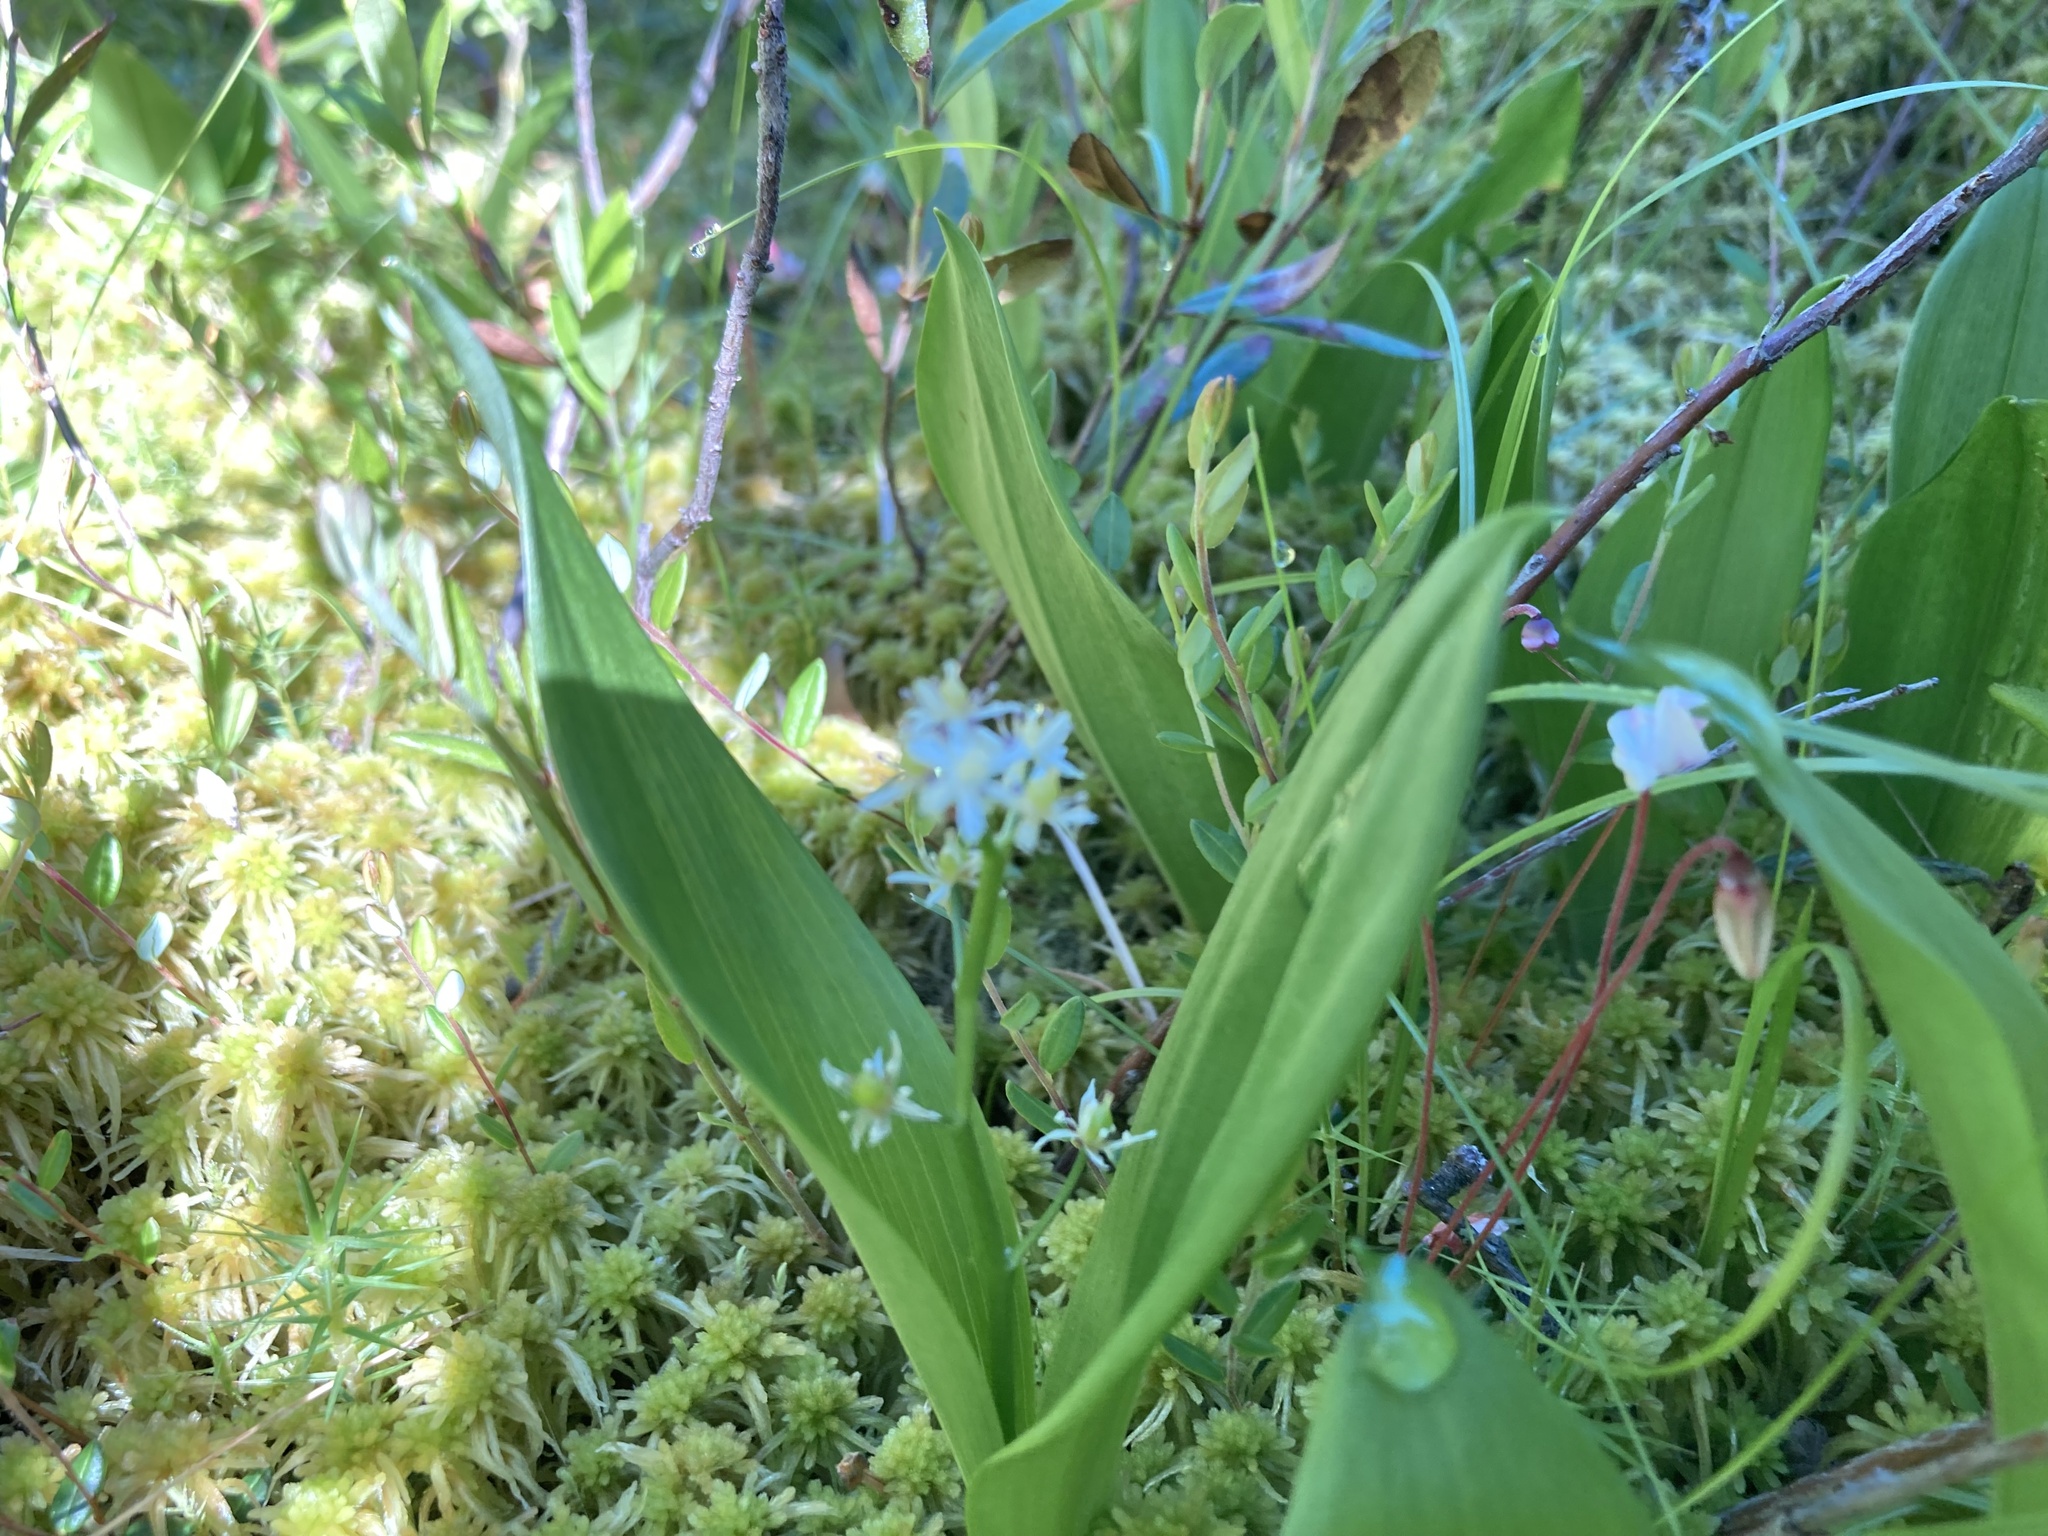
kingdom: Plantae
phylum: Tracheophyta
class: Liliopsida
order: Asparagales
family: Asparagaceae
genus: Maianthemum
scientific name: Maianthemum trifolium
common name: Swamp false solomon's seal
